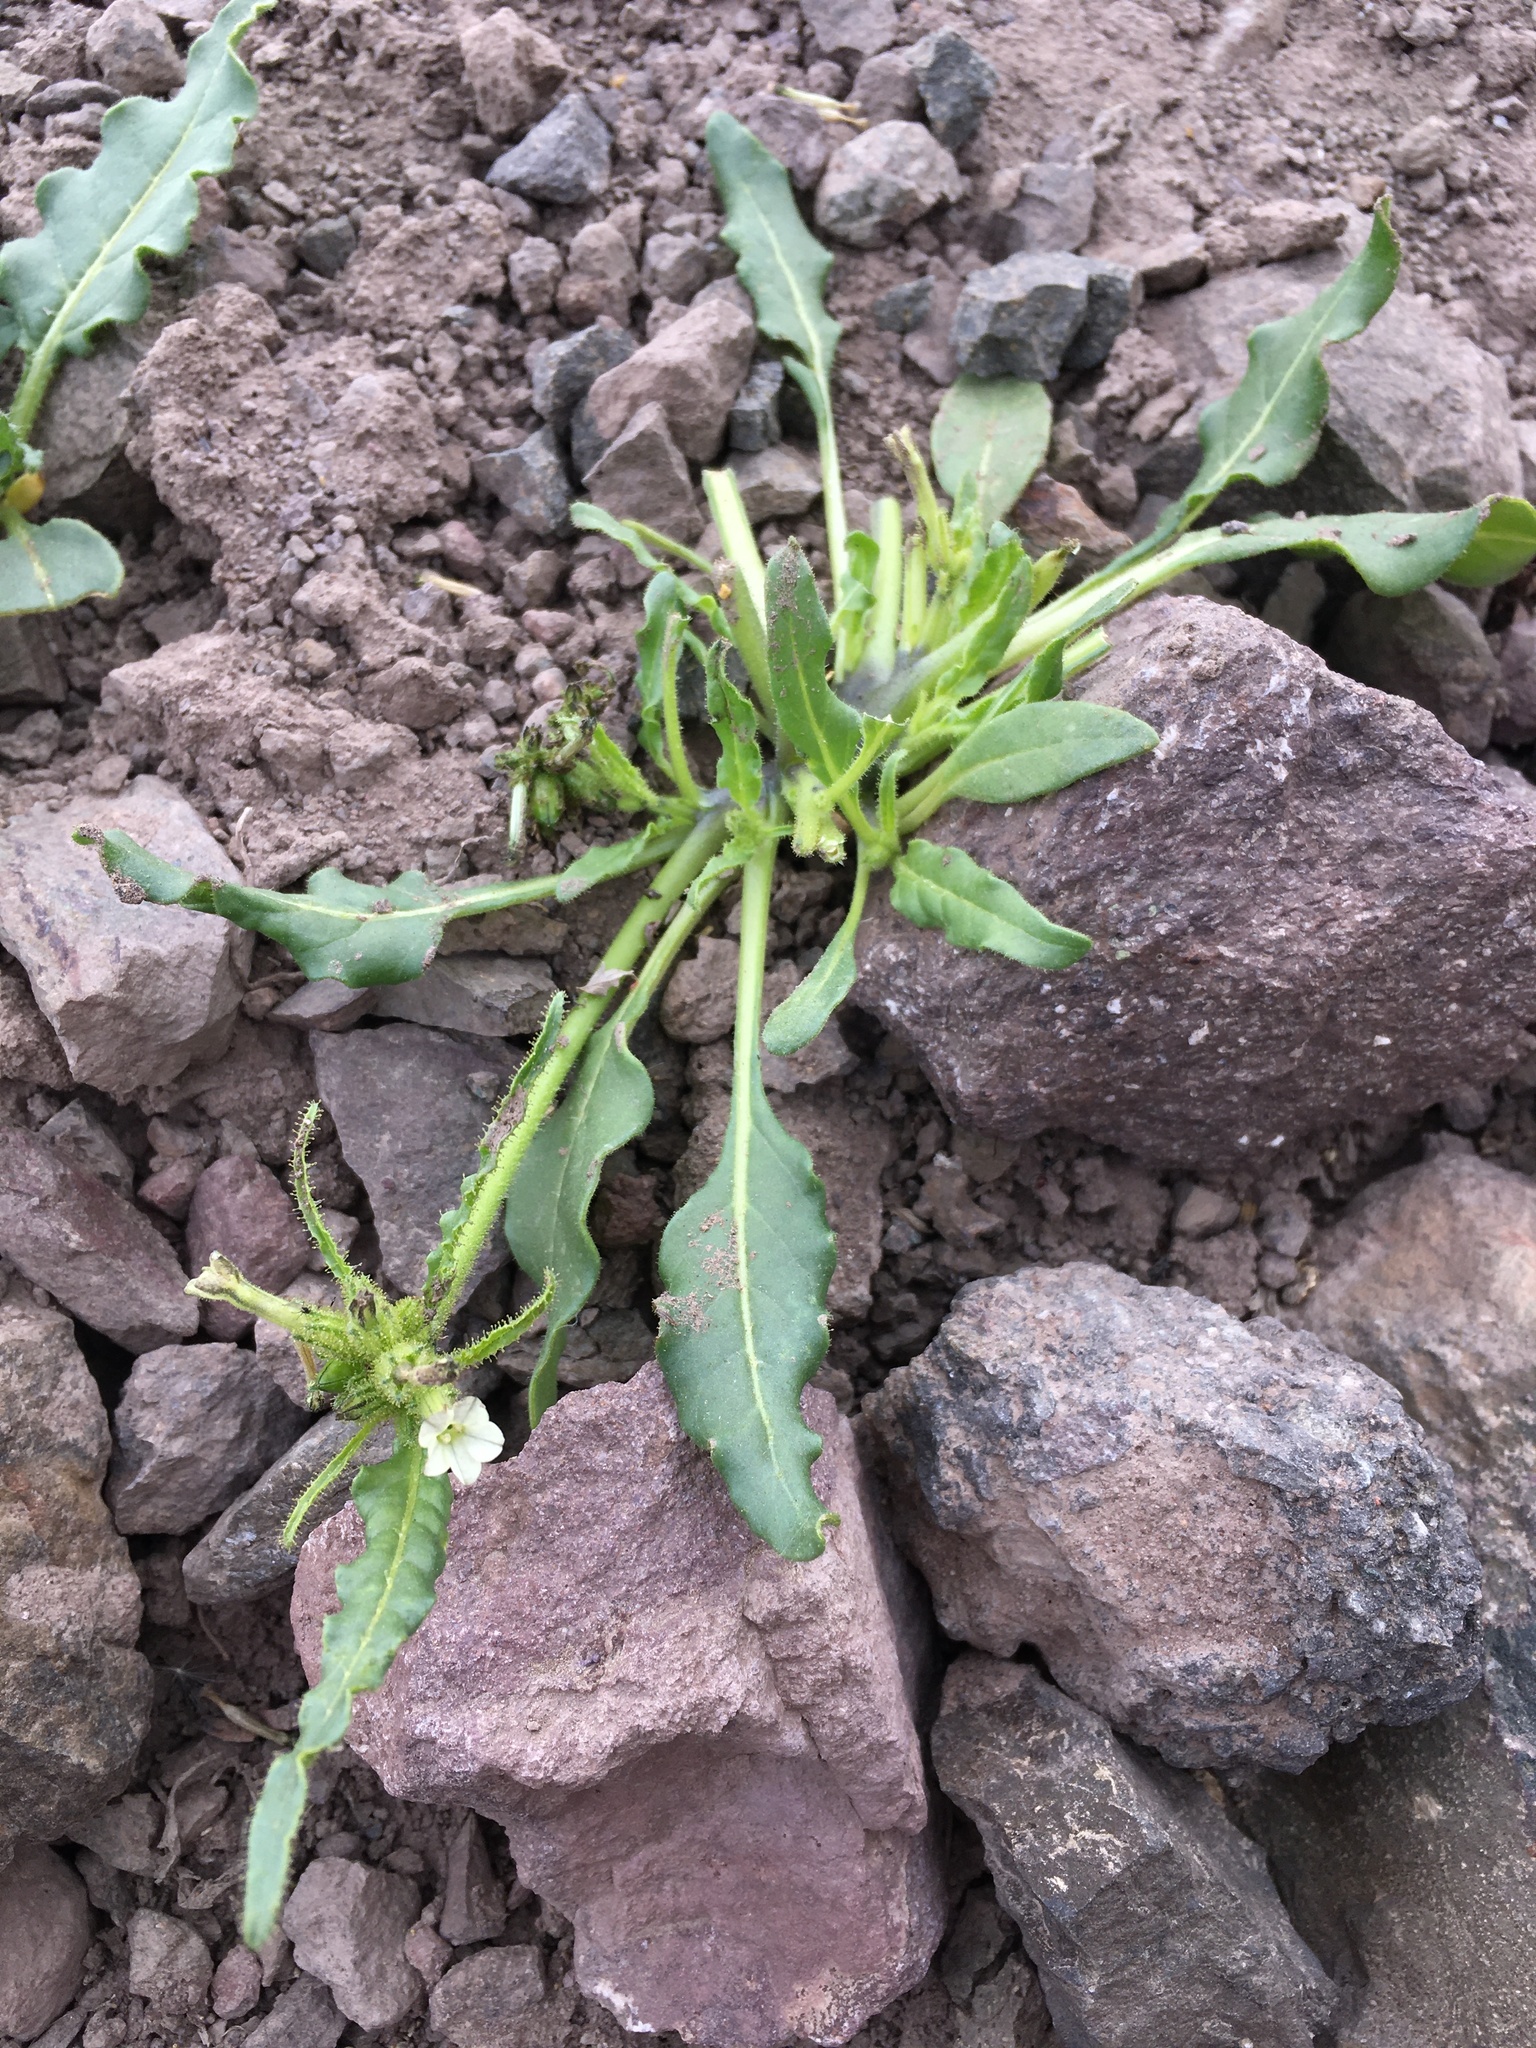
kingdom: Plantae
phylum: Tracheophyta
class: Magnoliopsida
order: Solanales
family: Solanaceae
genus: Nicotiana
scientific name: Nicotiana corymbosa
